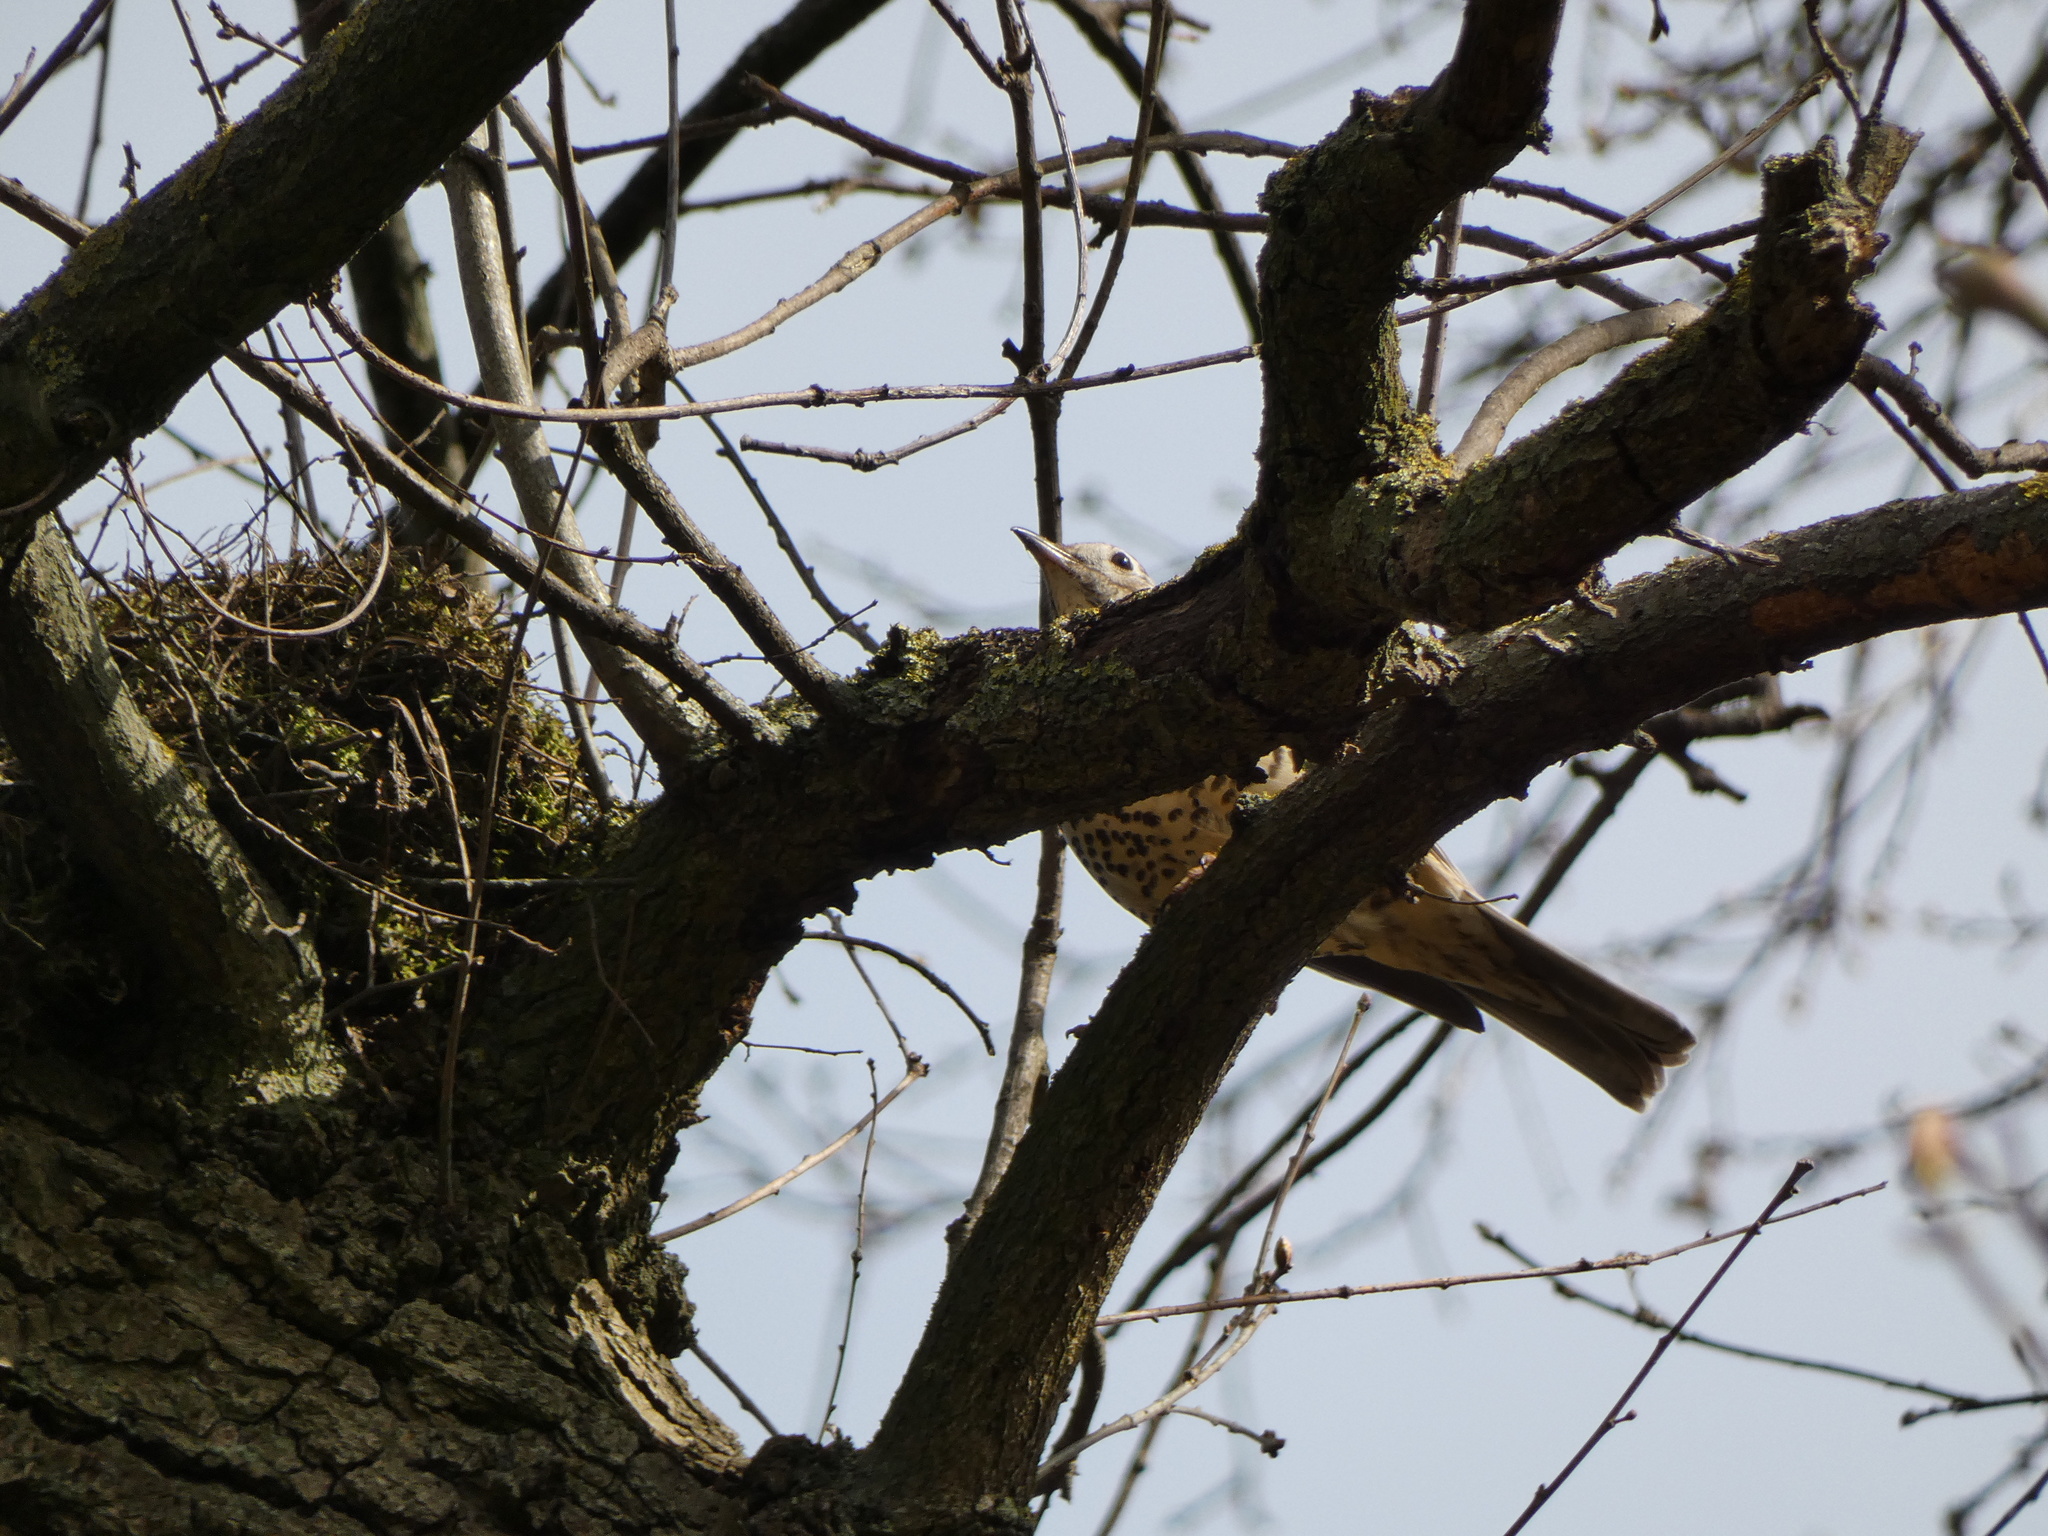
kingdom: Animalia
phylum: Chordata
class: Aves
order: Passeriformes
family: Turdidae
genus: Turdus
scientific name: Turdus viscivorus
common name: Mistle thrush
